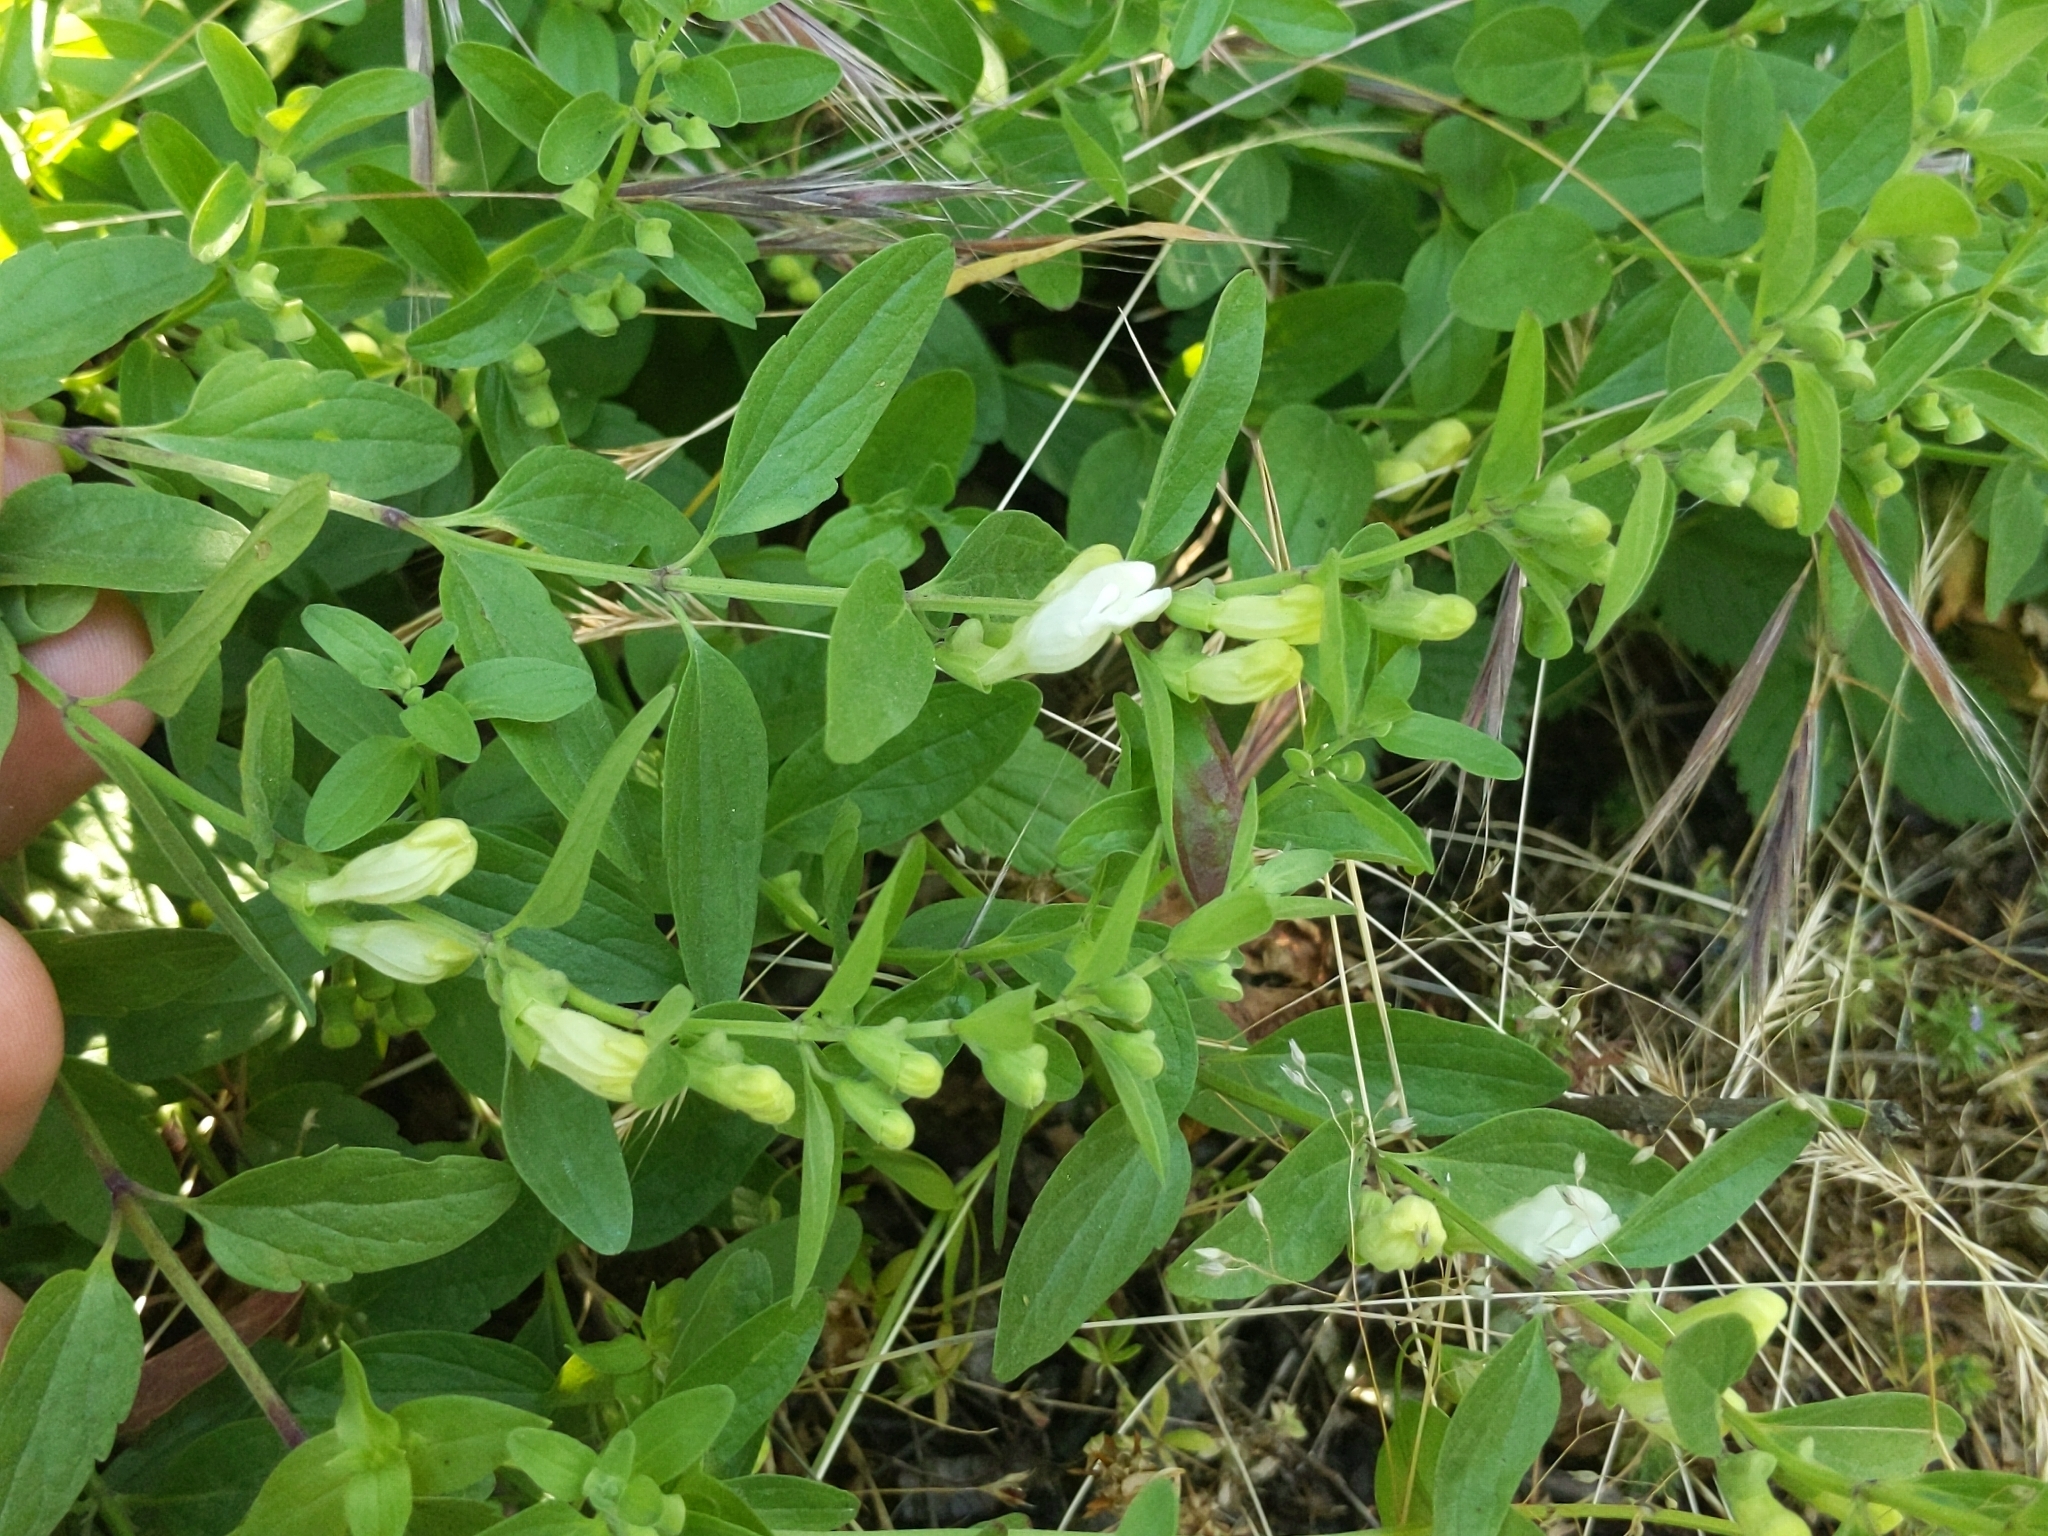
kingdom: Plantae
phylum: Tracheophyta
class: Magnoliopsida
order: Lamiales
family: Lamiaceae
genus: Scutellaria
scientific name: Scutellaria californica
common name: California scullcap
